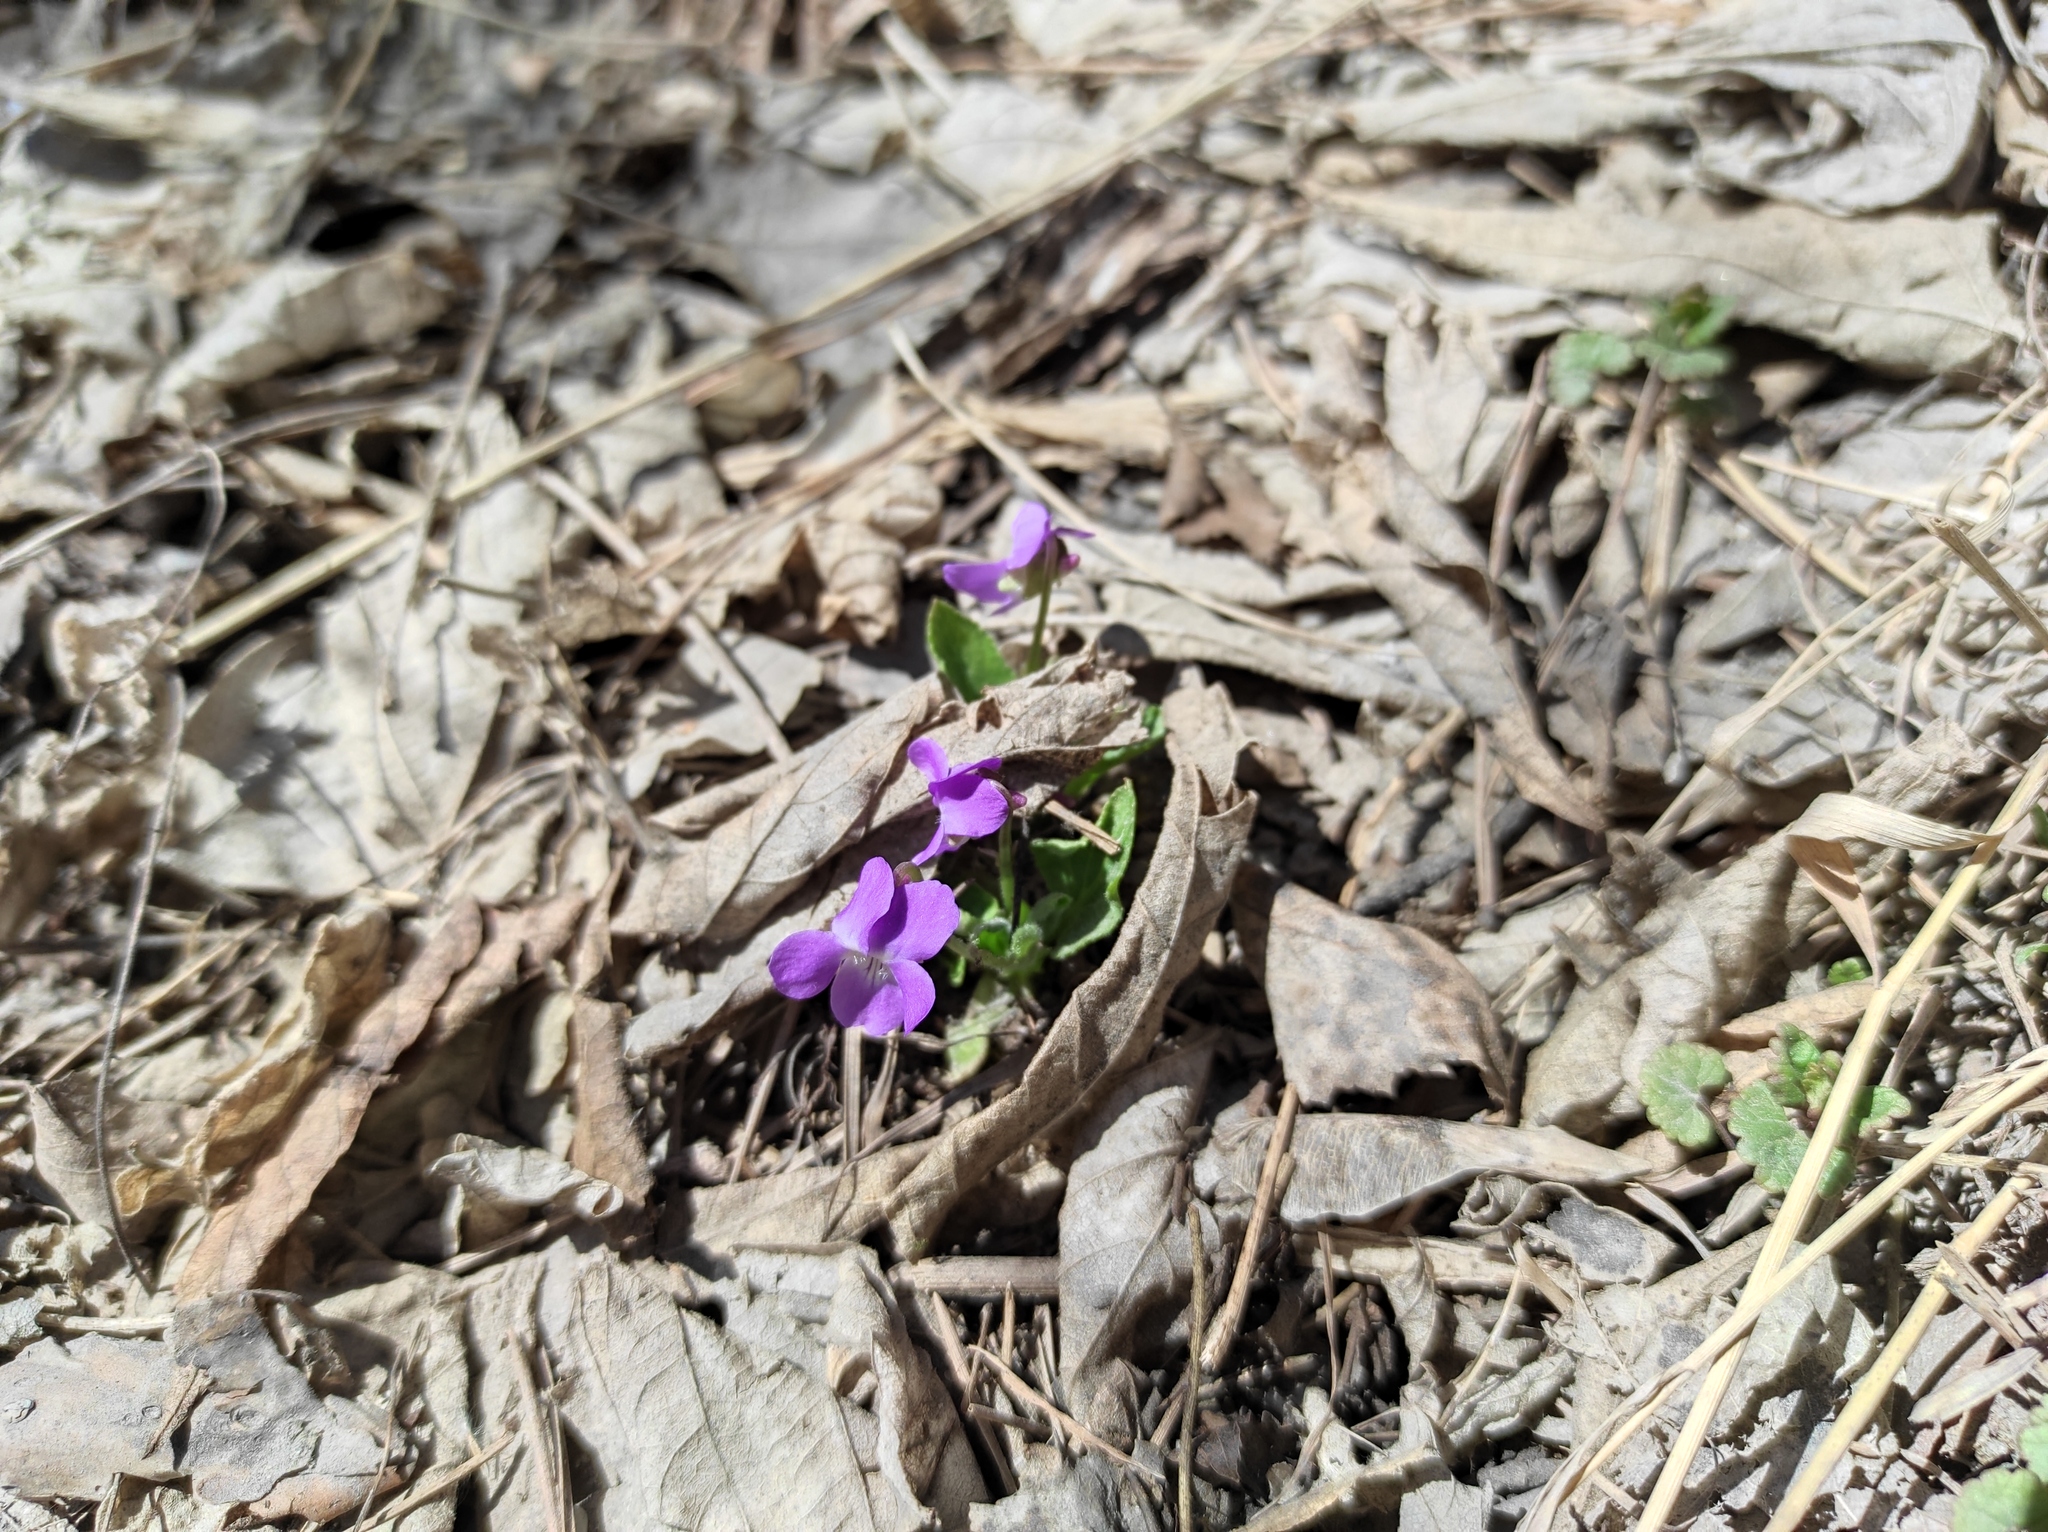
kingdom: Plantae
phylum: Tracheophyta
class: Magnoliopsida
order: Malpighiales
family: Violaceae
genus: Viola
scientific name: Viola hirta
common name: Hairy violet
